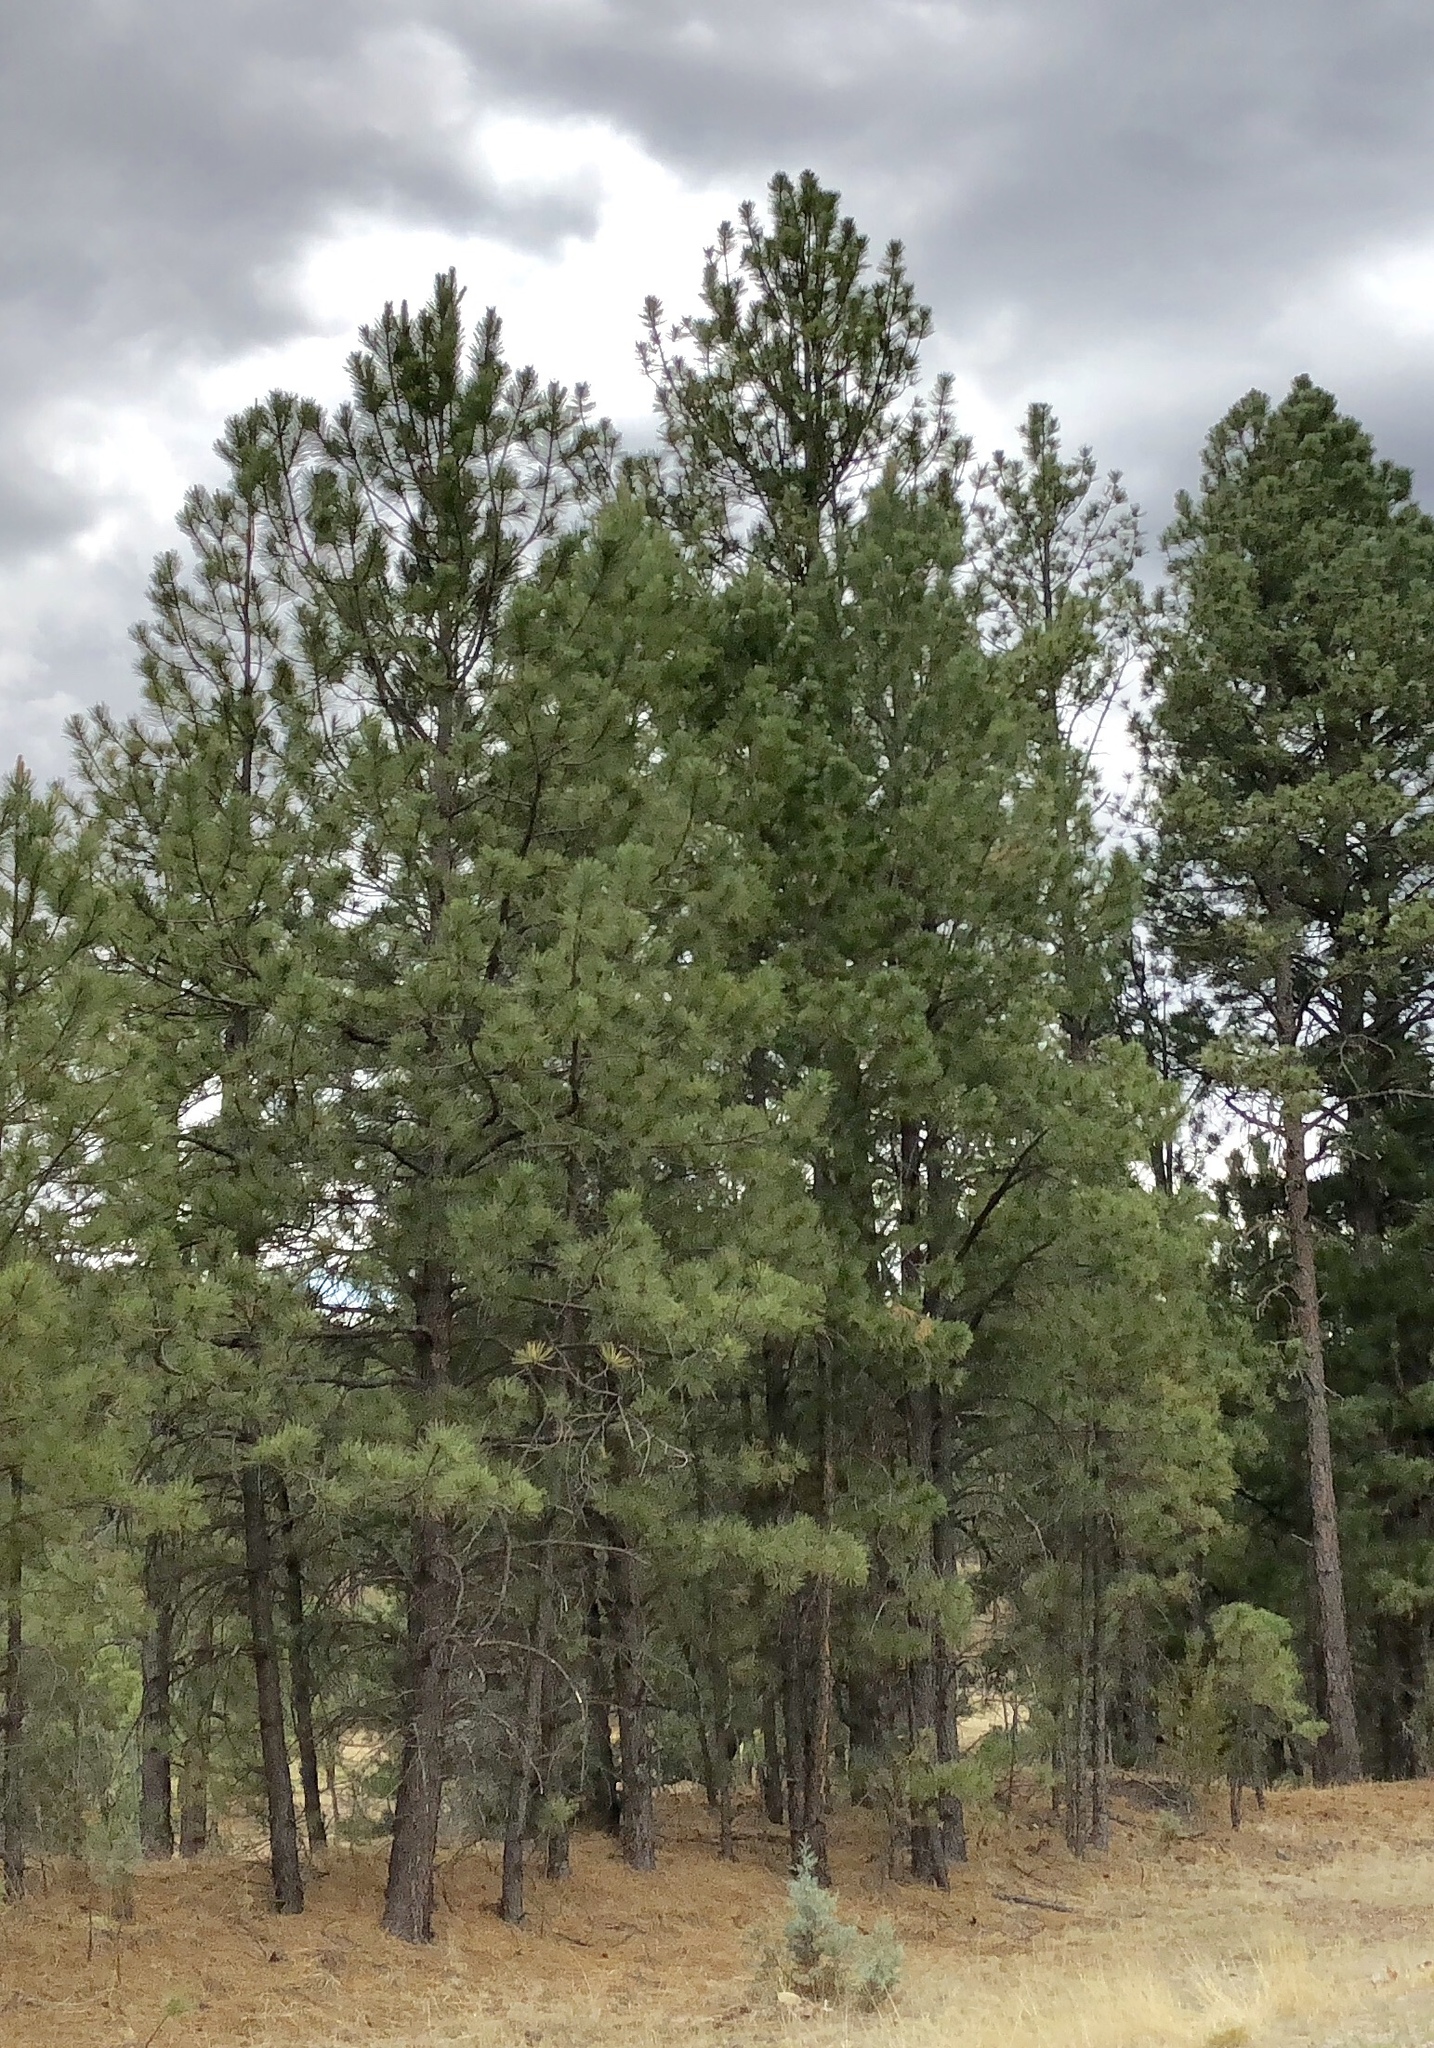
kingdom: Plantae
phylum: Tracheophyta
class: Pinopsida
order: Pinales
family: Pinaceae
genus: Pinus
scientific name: Pinus ponderosa
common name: Western yellow-pine
